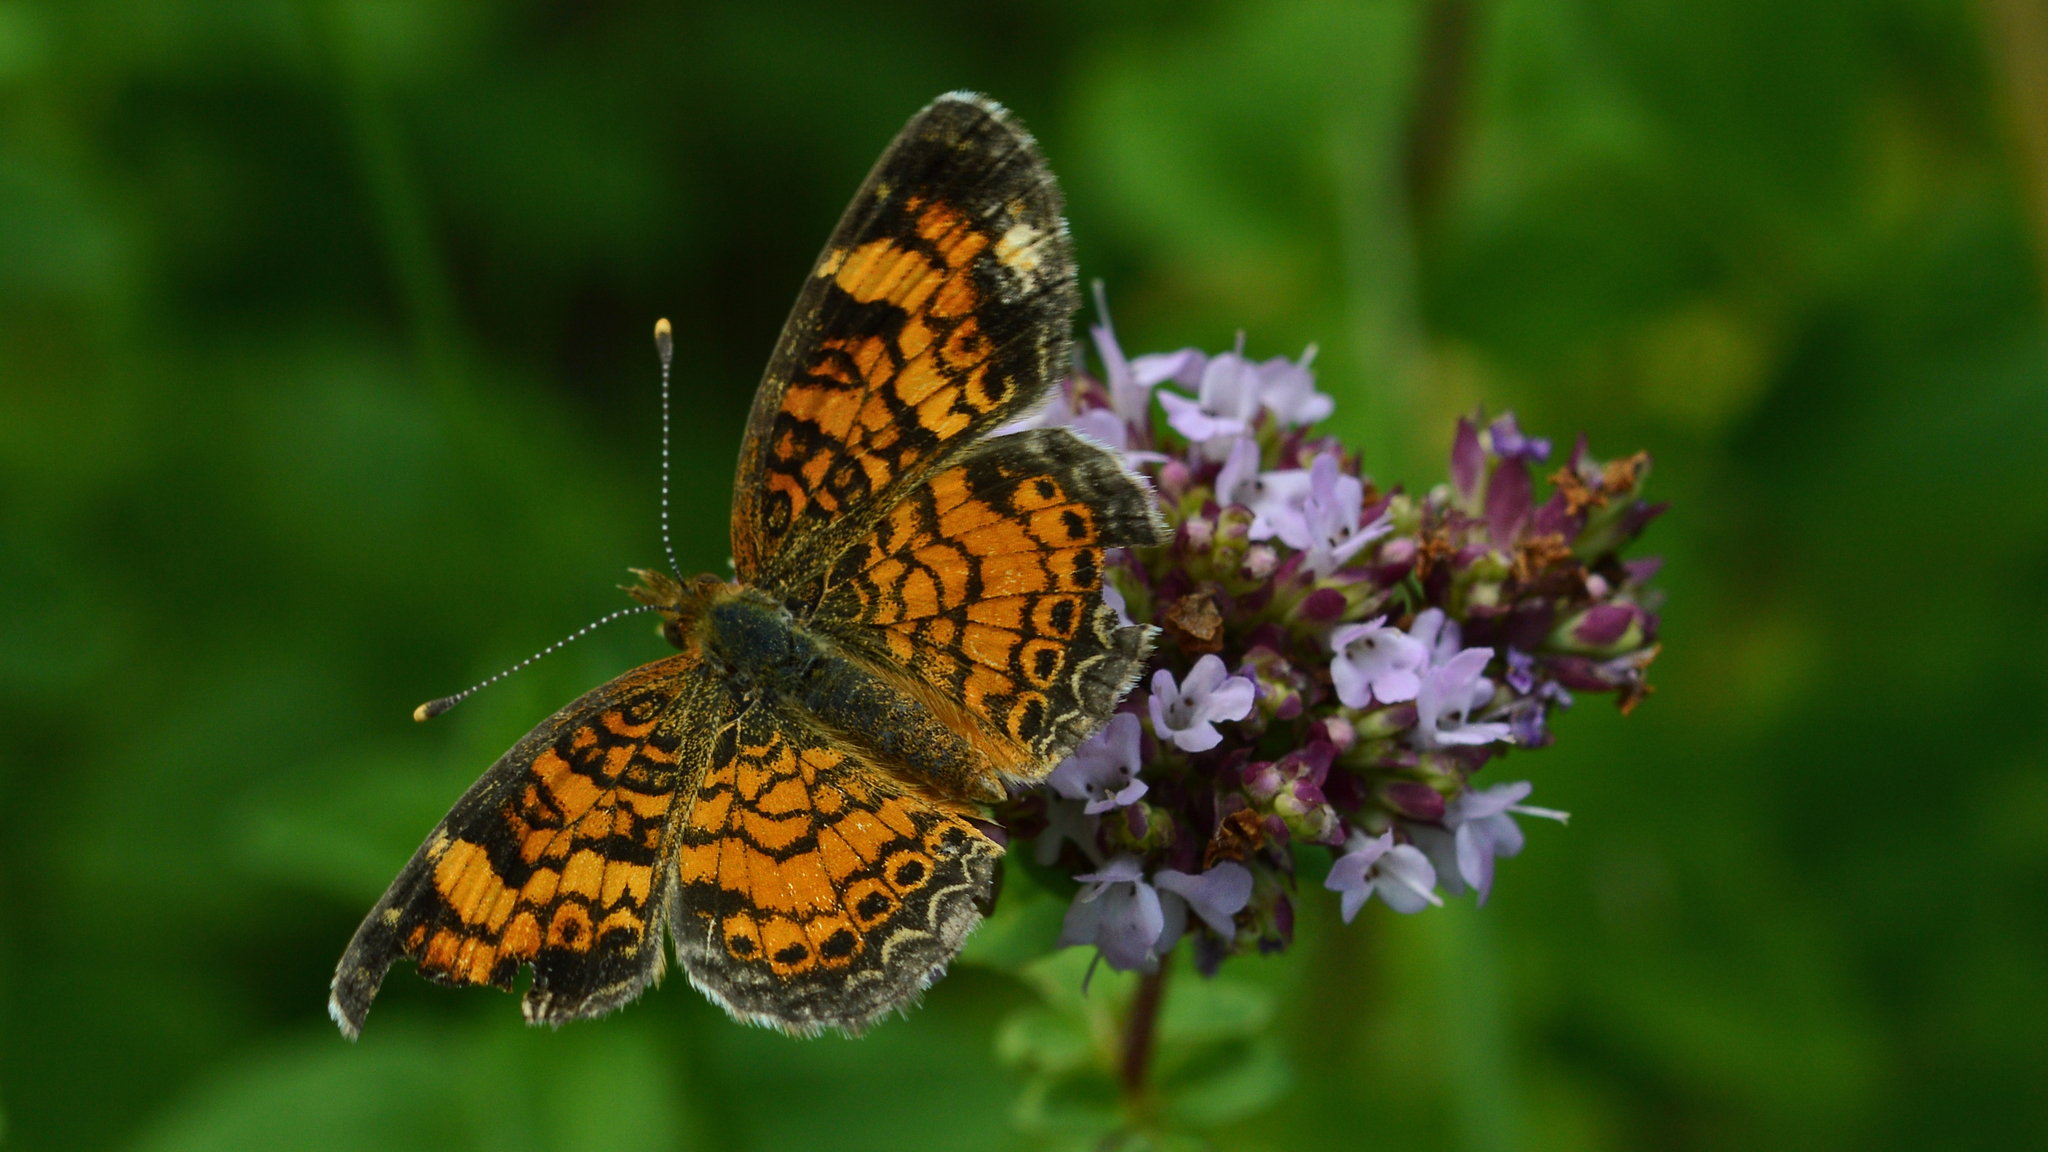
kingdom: Animalia
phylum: Arthropoda
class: Insecta
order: Lepidoptera
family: Nymphalidae
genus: Phyciodes
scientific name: Phyciodes tharos
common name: Pearl crescent
